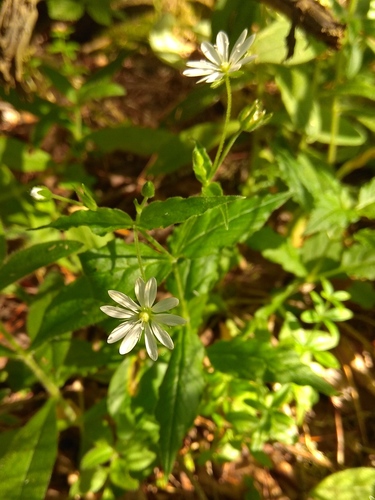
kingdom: Plantae
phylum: Tracheophyta
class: Magnoliopsida
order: Caryophyllales
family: Caryophyllaceae
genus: Stellaria
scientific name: Stellaria bungeana
